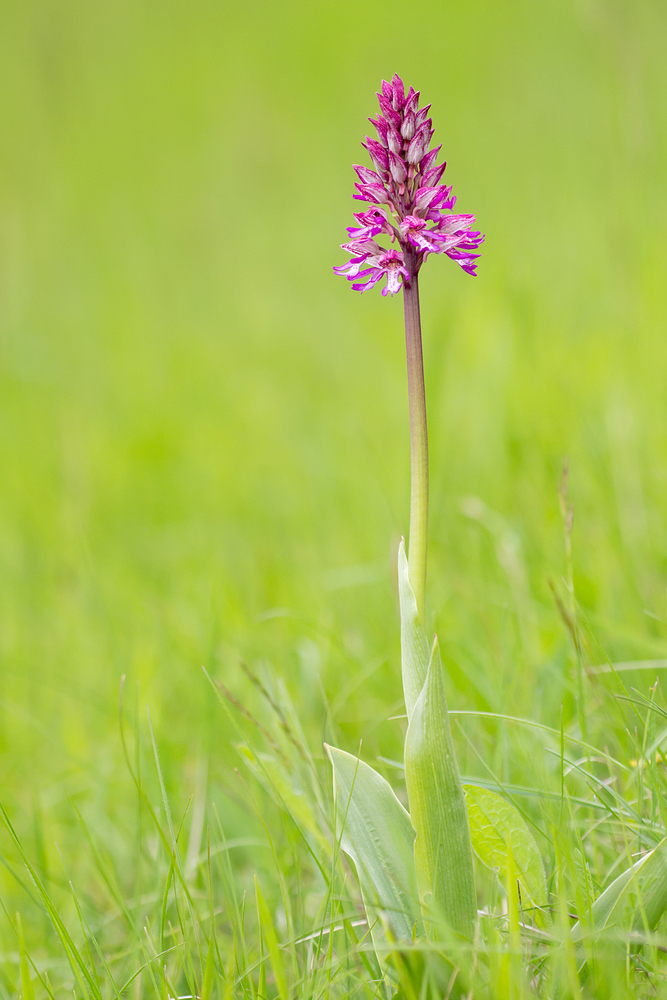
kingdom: Plantae
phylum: Tracheophyta
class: Liliopsida
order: Asparagales
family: Orchidaceae
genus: Orchis
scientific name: Orchis hybrida
